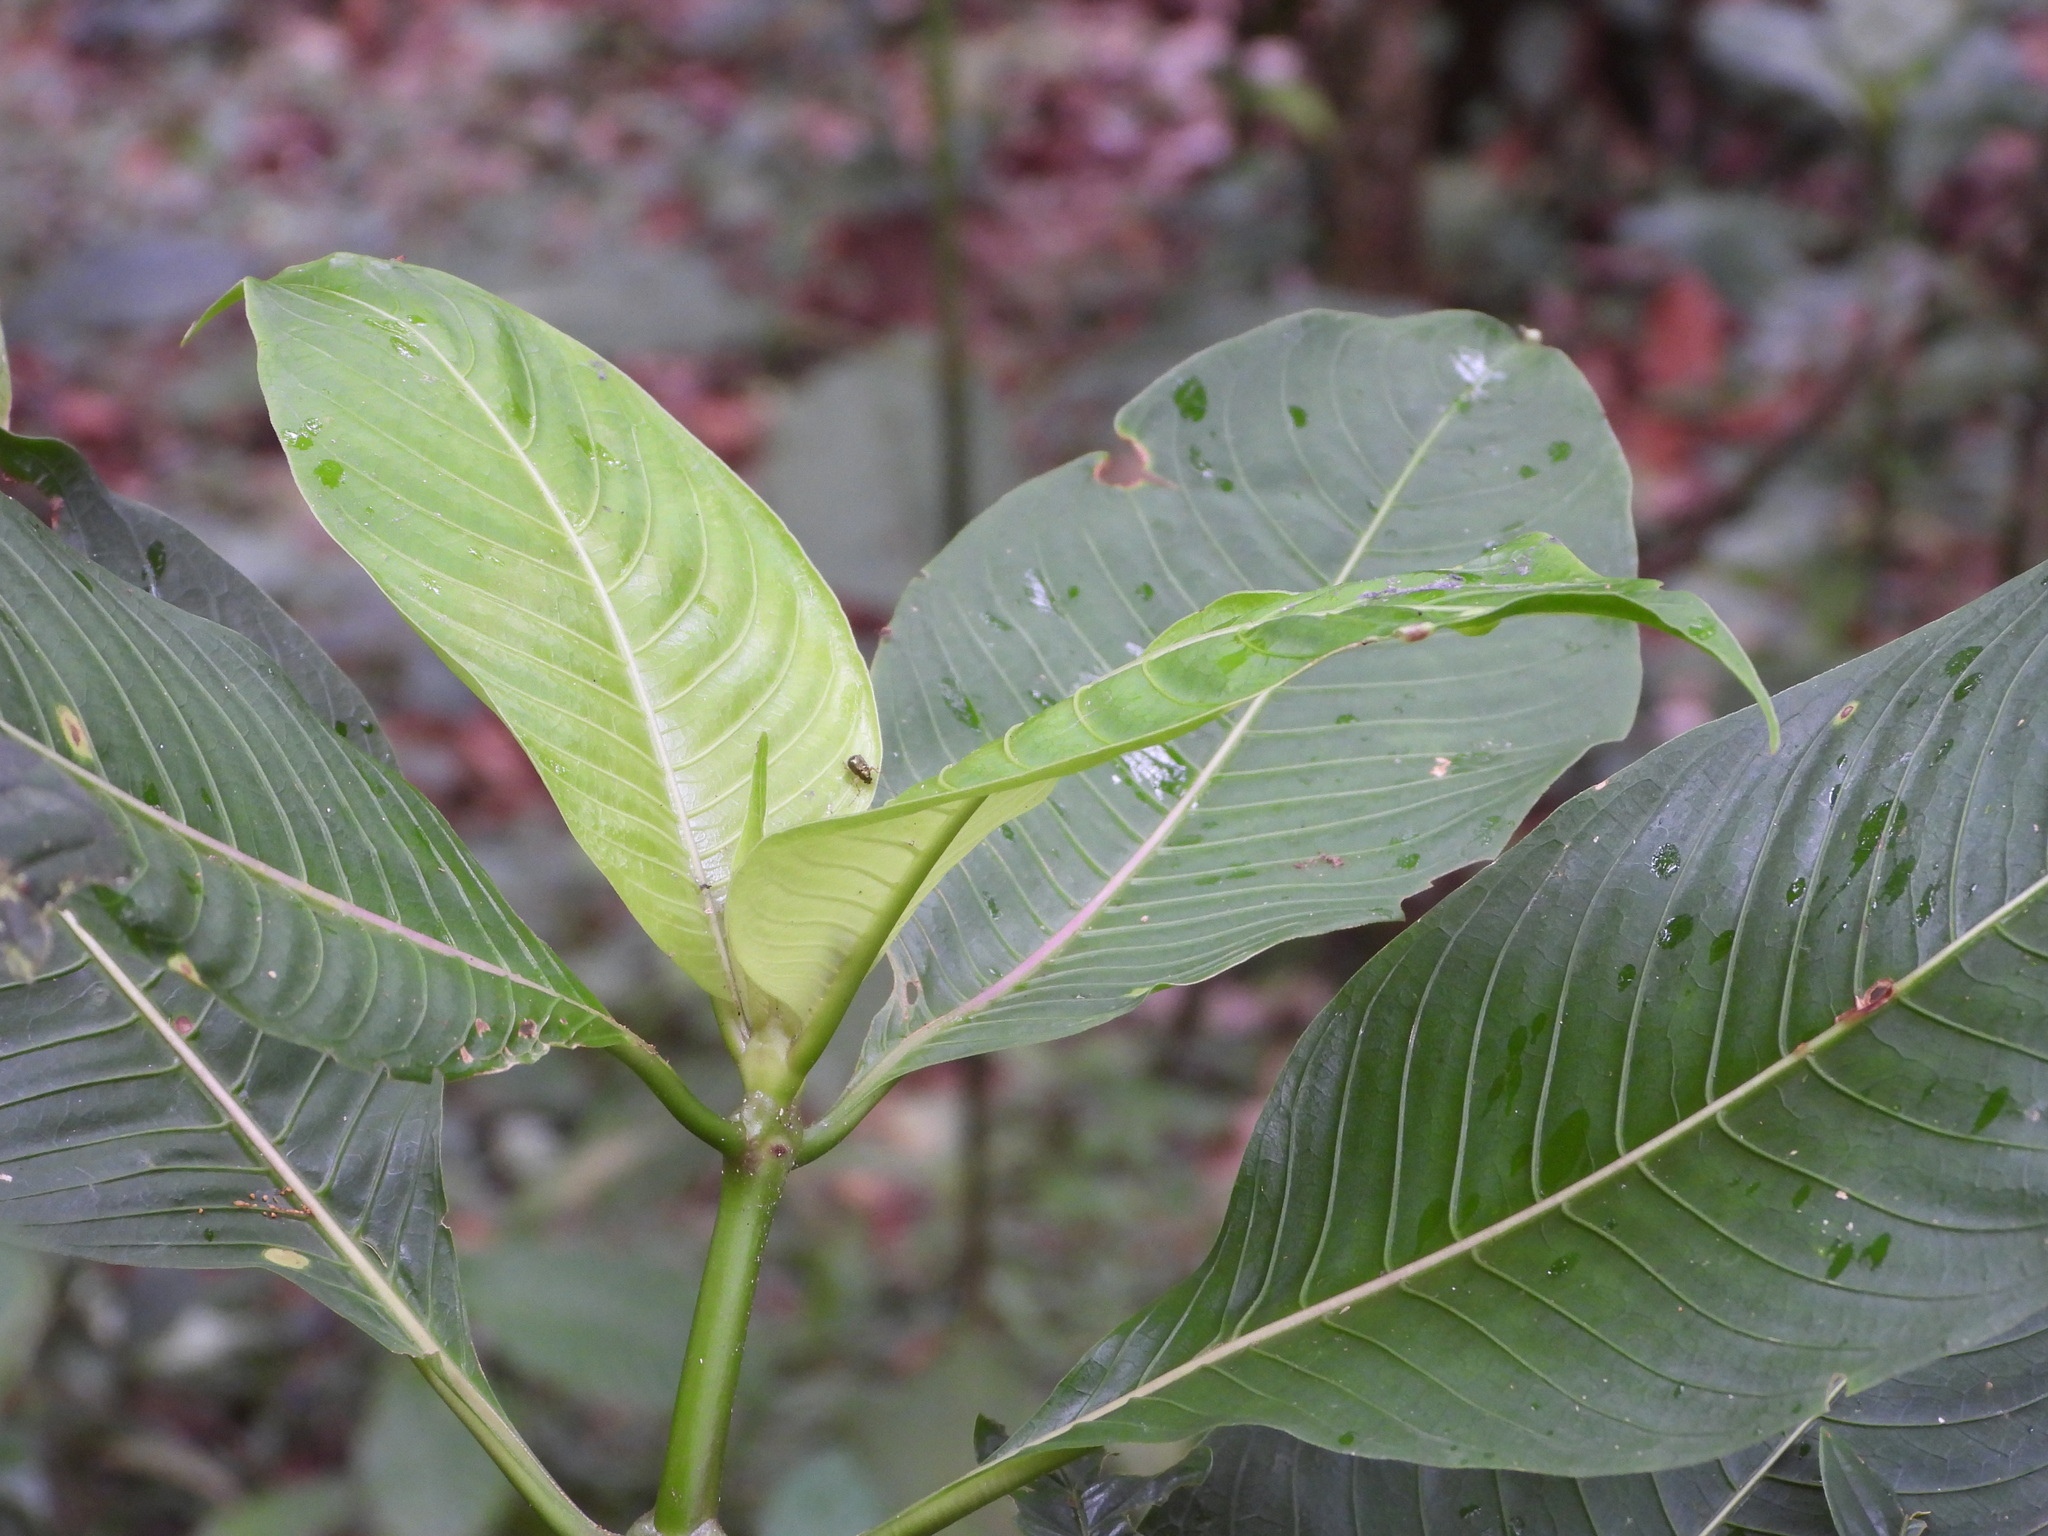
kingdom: Plantae
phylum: Tracheophyta
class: Magnoliopsida
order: Gentianales
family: Rubiaceae
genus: Palicourea
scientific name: Palicourea guianensis
